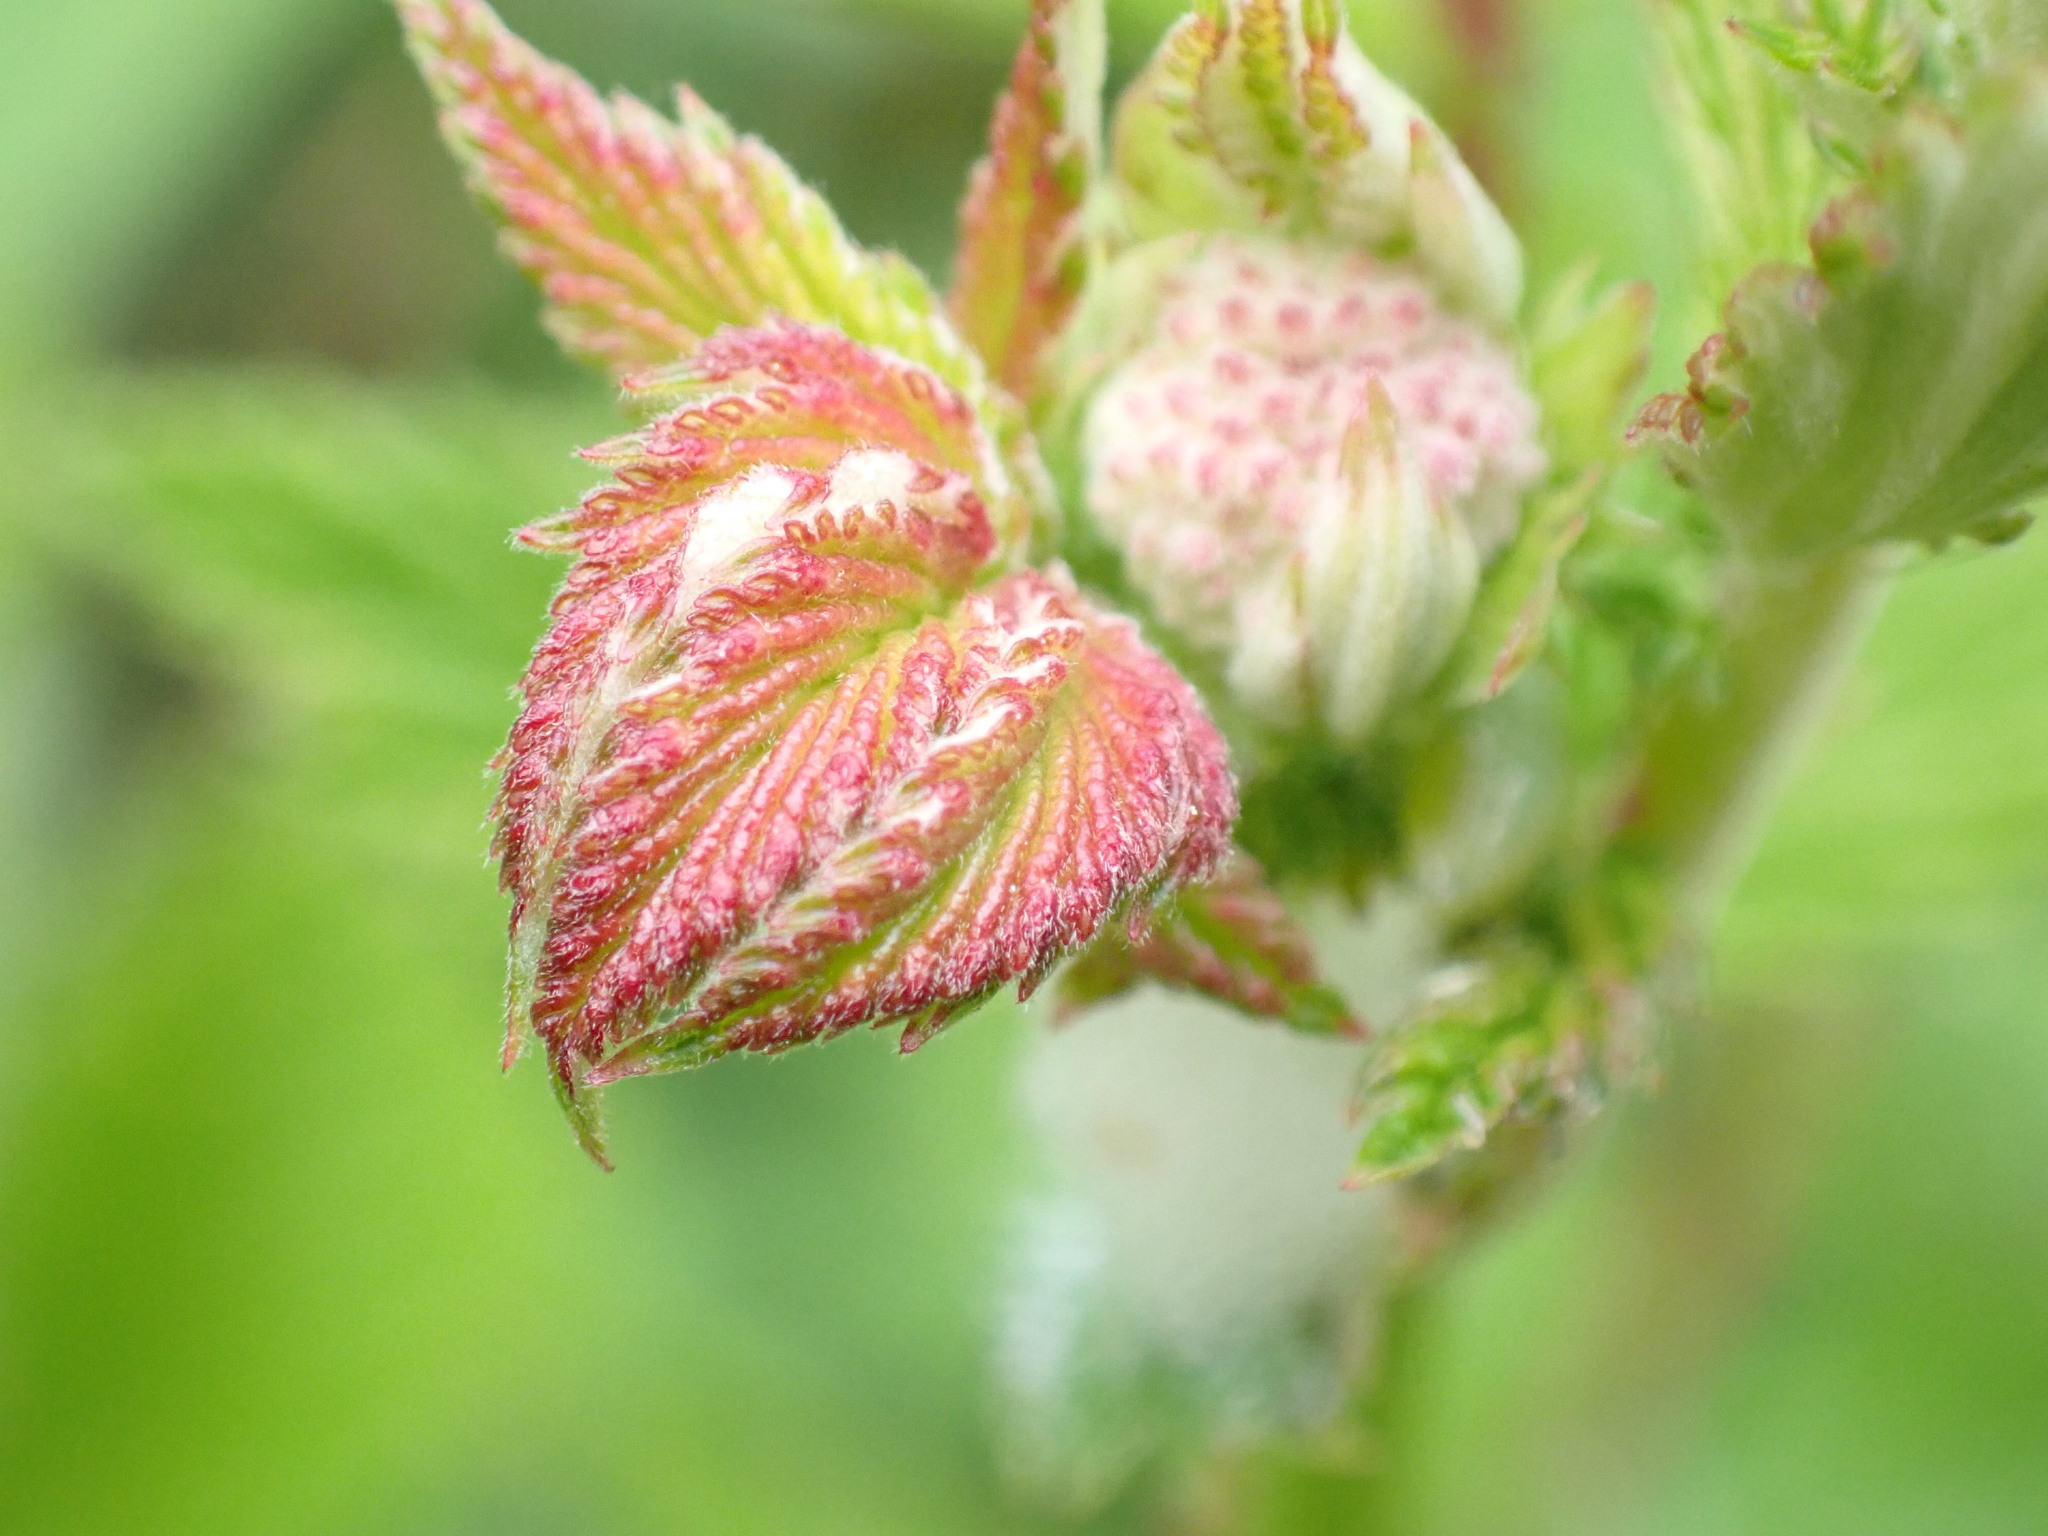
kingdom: Plantae
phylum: Tracheophyta
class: Magnoliopsida
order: Rosales
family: Rosaceae
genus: Filipendula
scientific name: Filipendula ulmaria
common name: Meadowsweet
